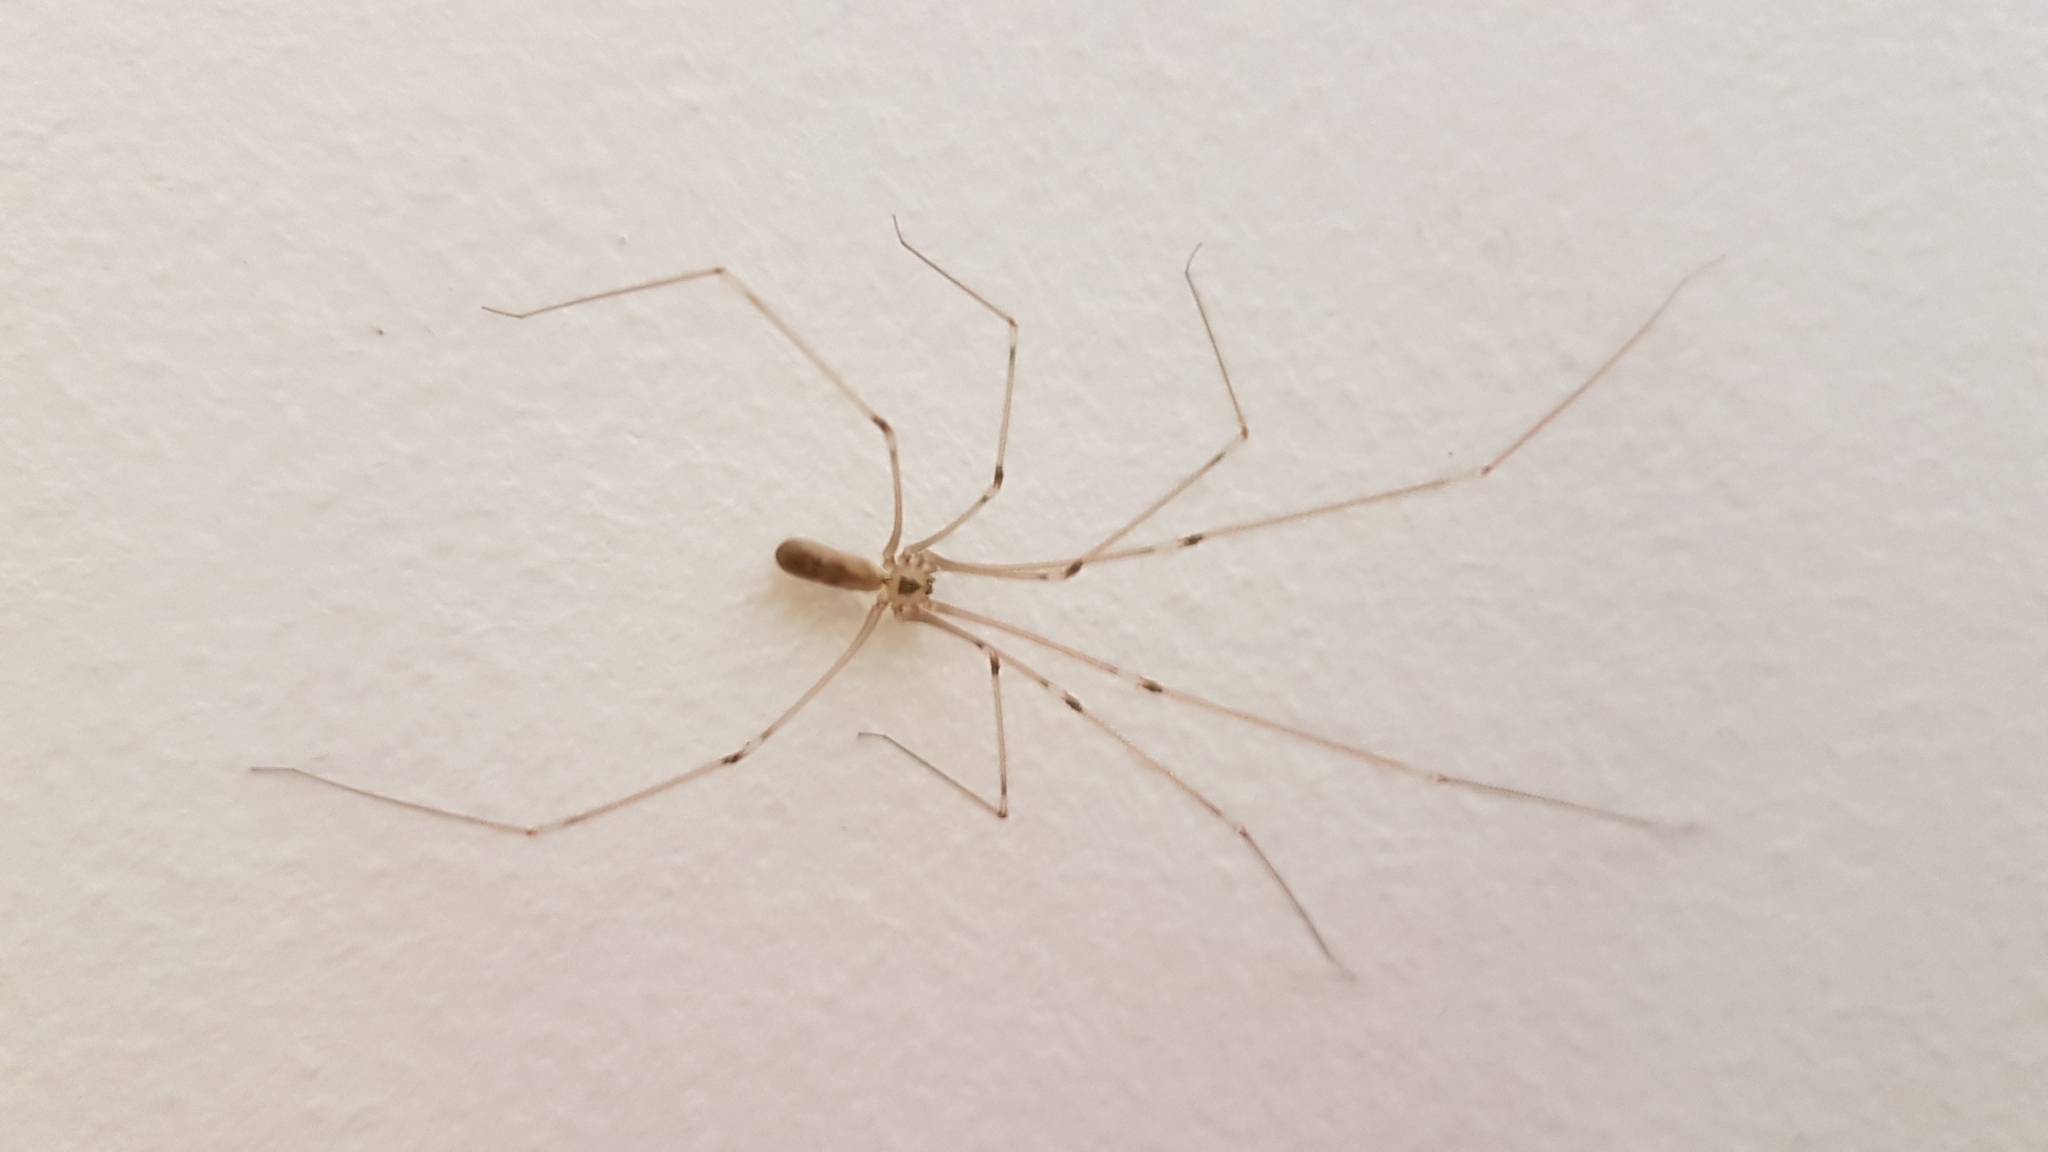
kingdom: Animalia
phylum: Arthropoda
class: Arachnida
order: Araneae
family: Pholcidae
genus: Pholcus
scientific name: Pholcus phalangioides
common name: Longbodied cellar spider
